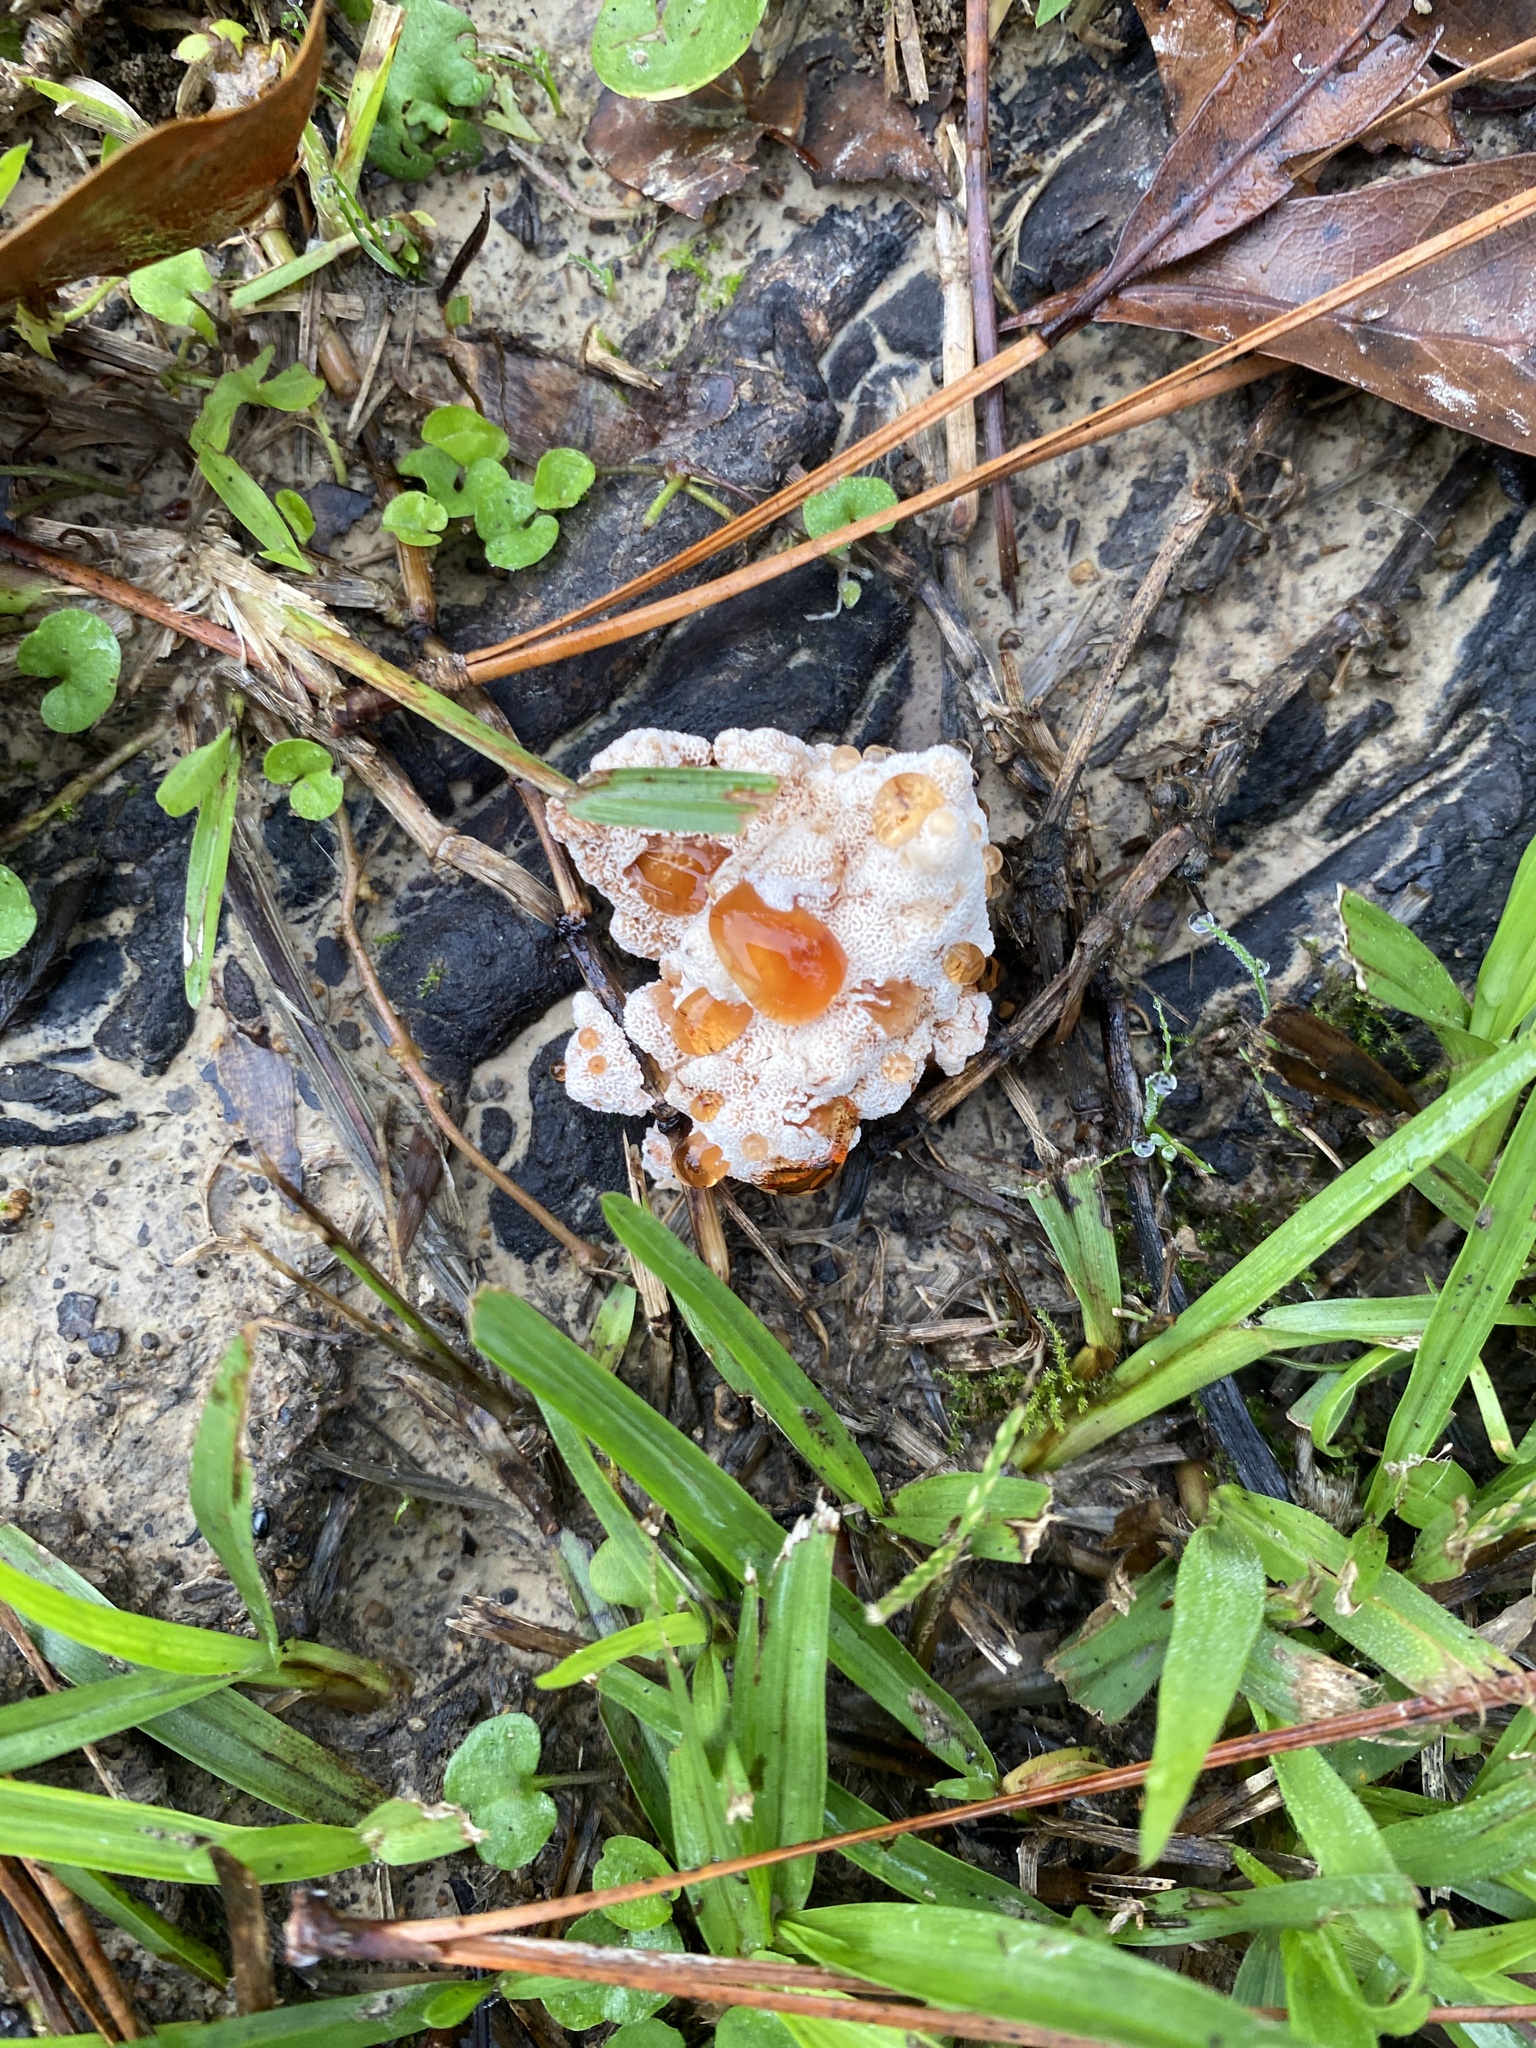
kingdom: Fungi
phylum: Basidiomycota
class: Agaricomycetes
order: Polyporales
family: Podoscyphaceae
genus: Abortiporus
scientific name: Abortiporus biennis
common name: Blushing rosette
